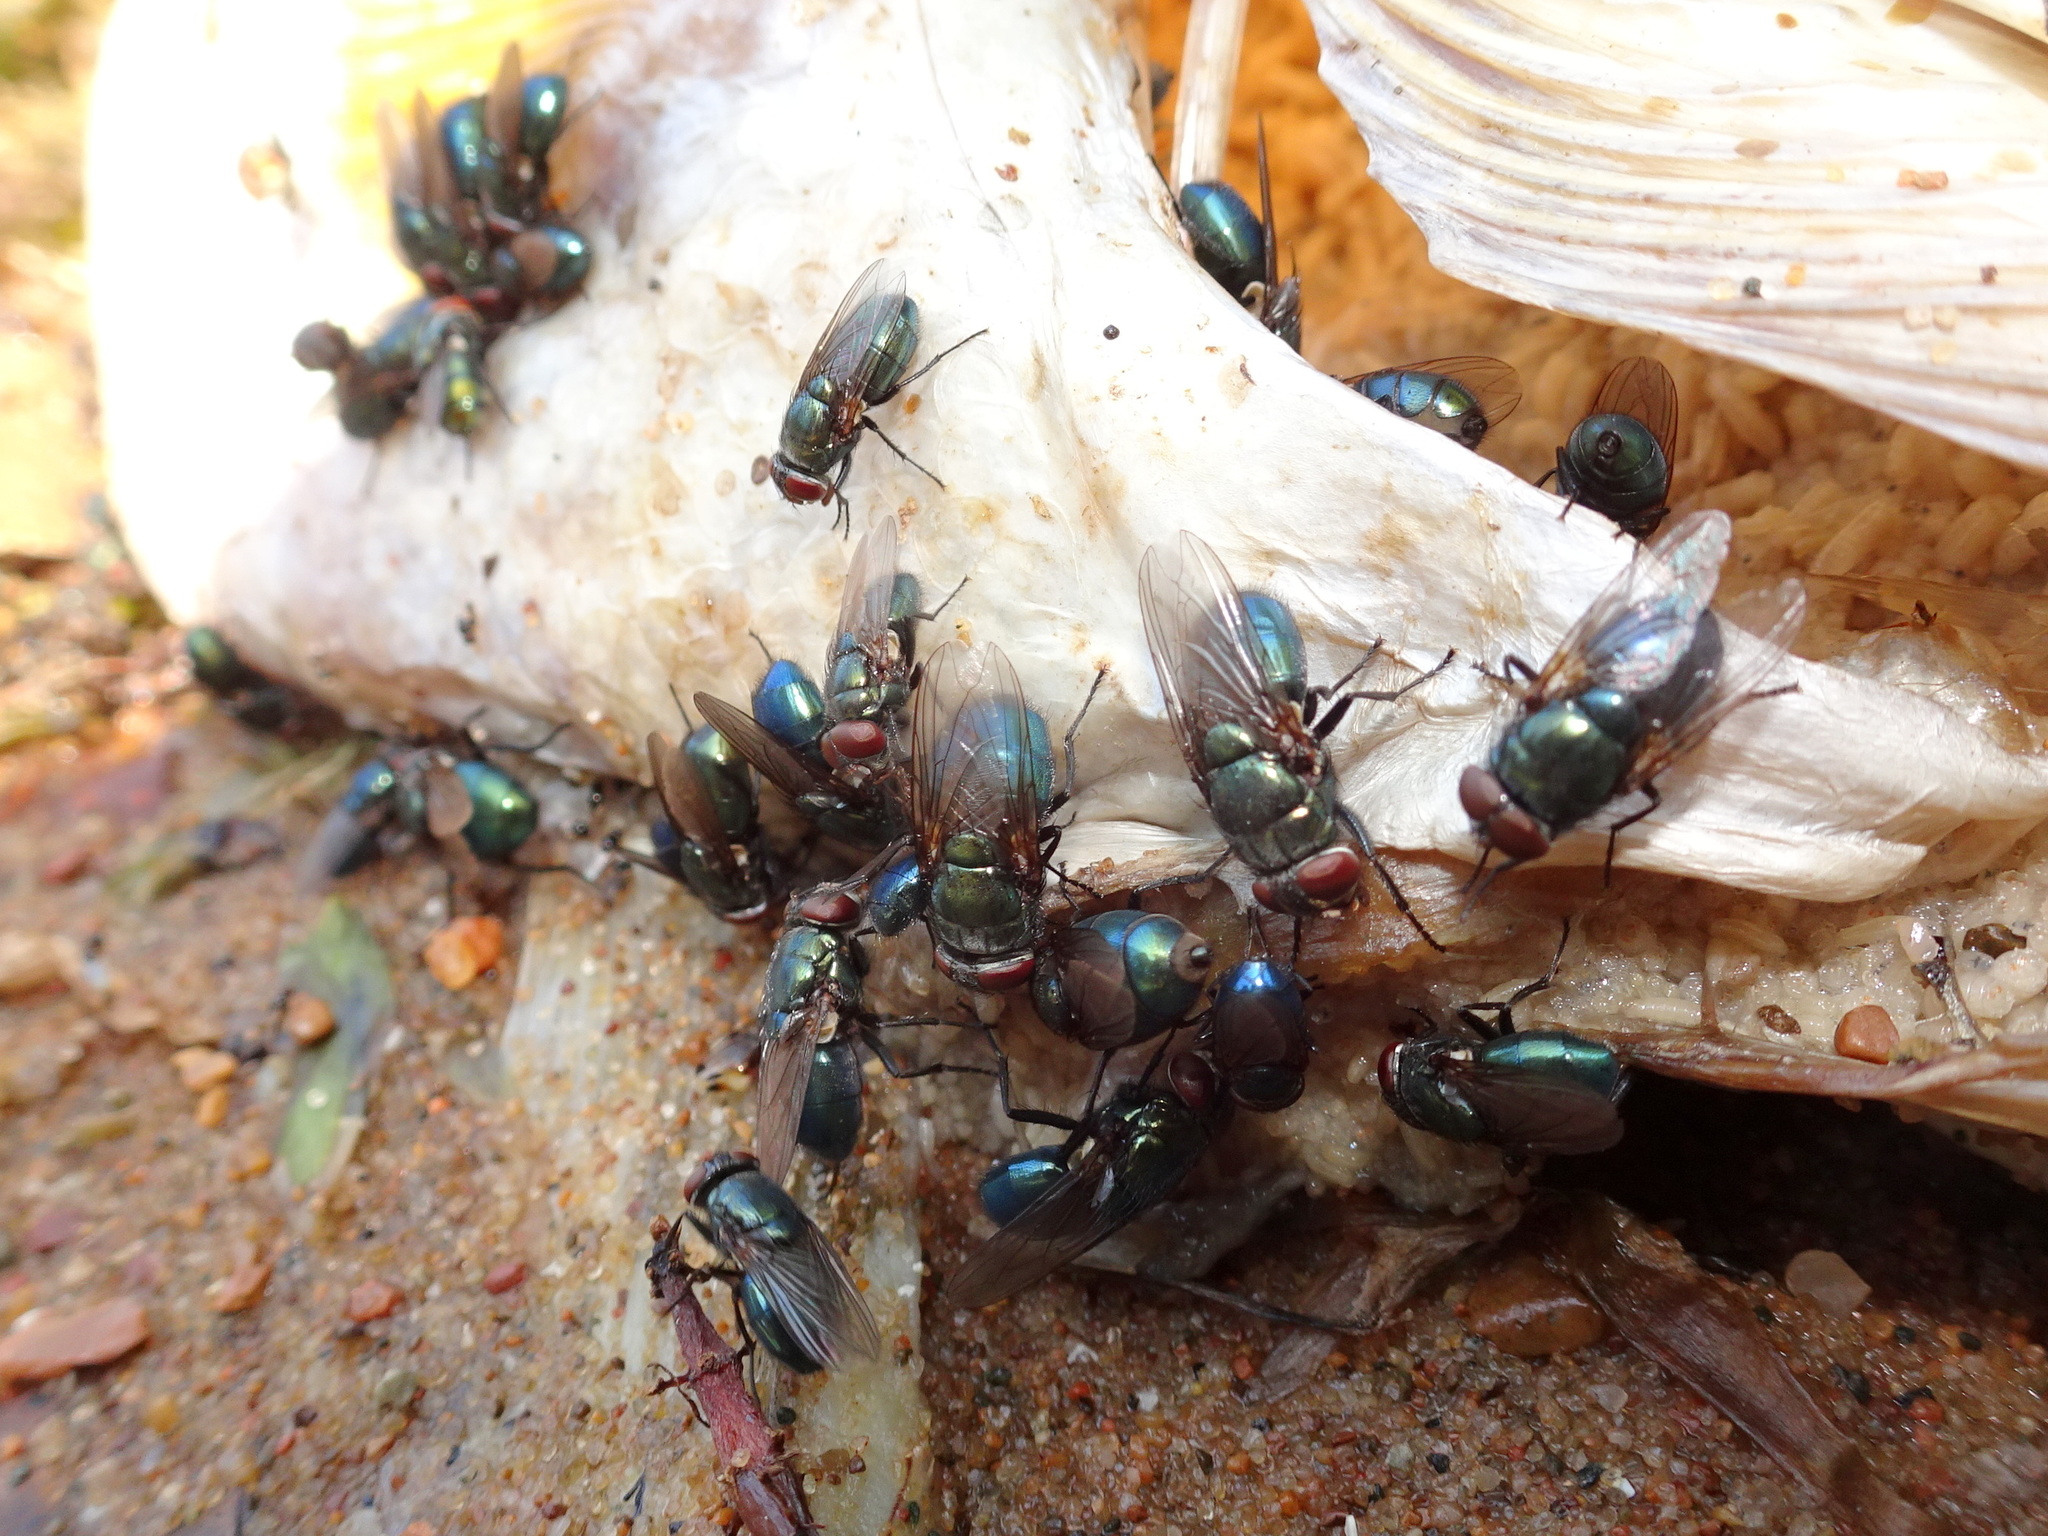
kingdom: Animalia
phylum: Arthropoda
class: Insecta
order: Diptera
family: Calliphoridae
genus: Phormia
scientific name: Phormia regina
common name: Black blow fly
